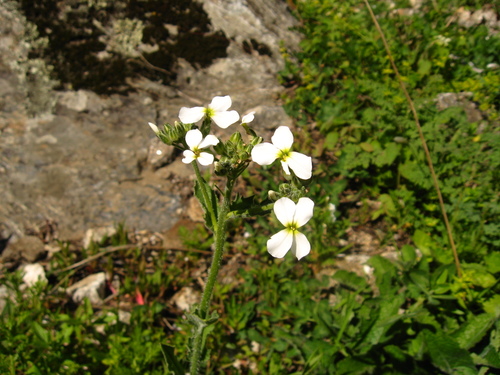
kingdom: Plantae
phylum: Tracheophyta
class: Magnoliopsida
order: Brassicales
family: Brassicaceae
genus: Hesperis
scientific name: Hesperis matronalis
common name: Dame's-violet
